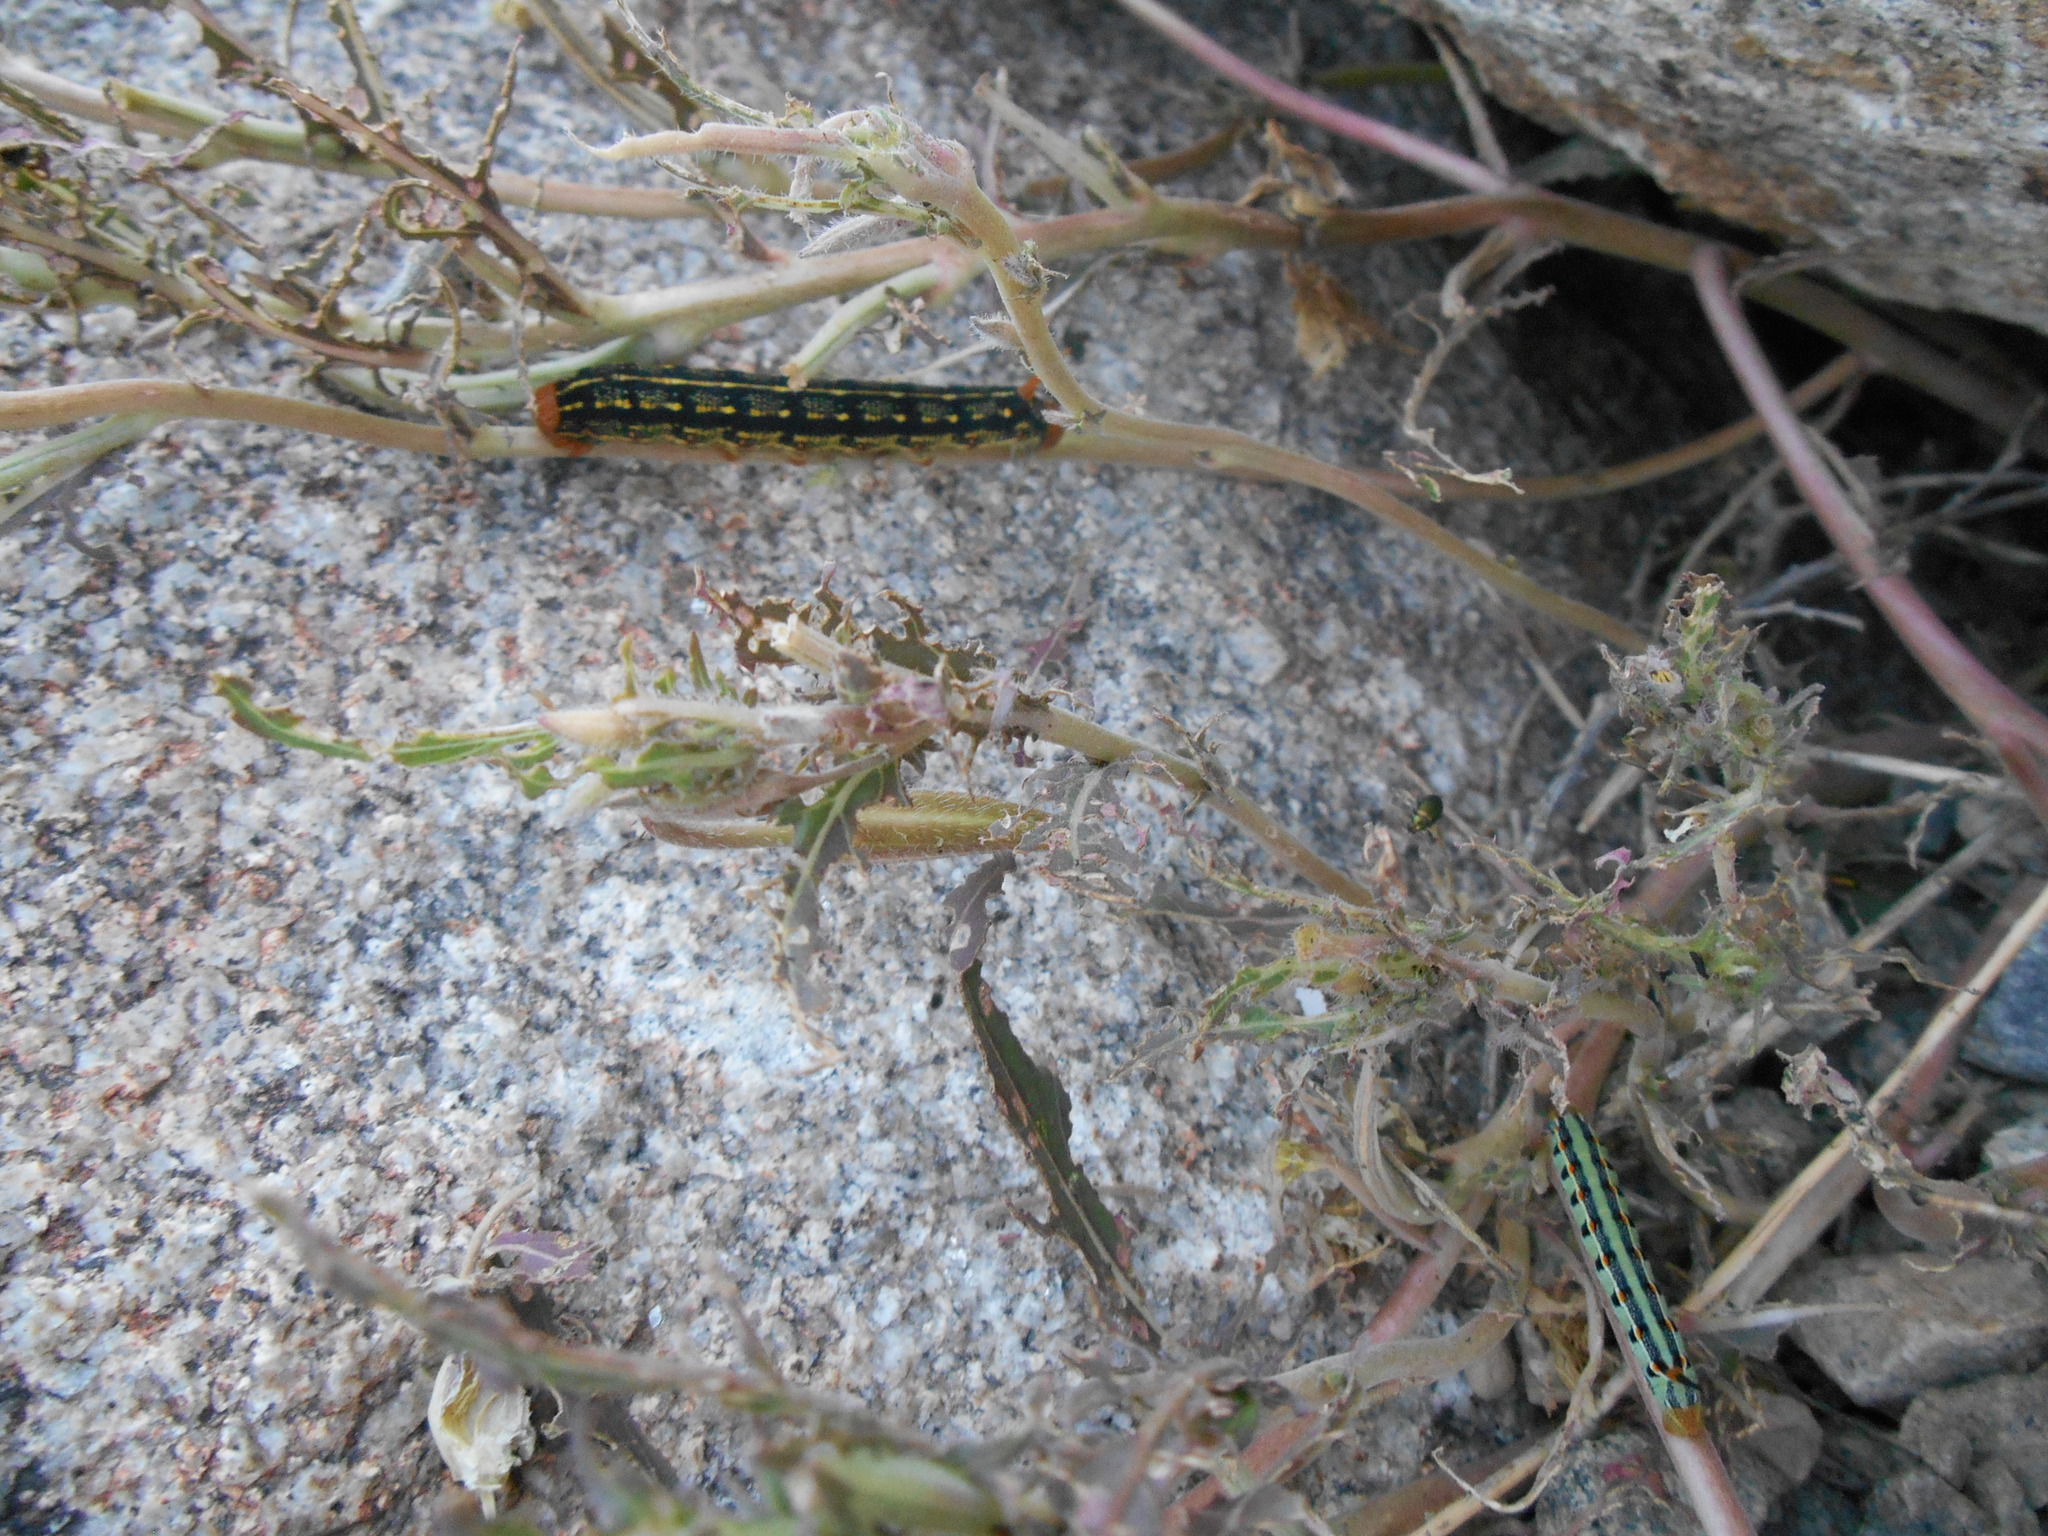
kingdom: Animalia
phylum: Arthropoda
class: Insecta
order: Lepidoptera
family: Sphingidae
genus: Hyles
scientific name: Hyles lineata
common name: White-lined sphinx
